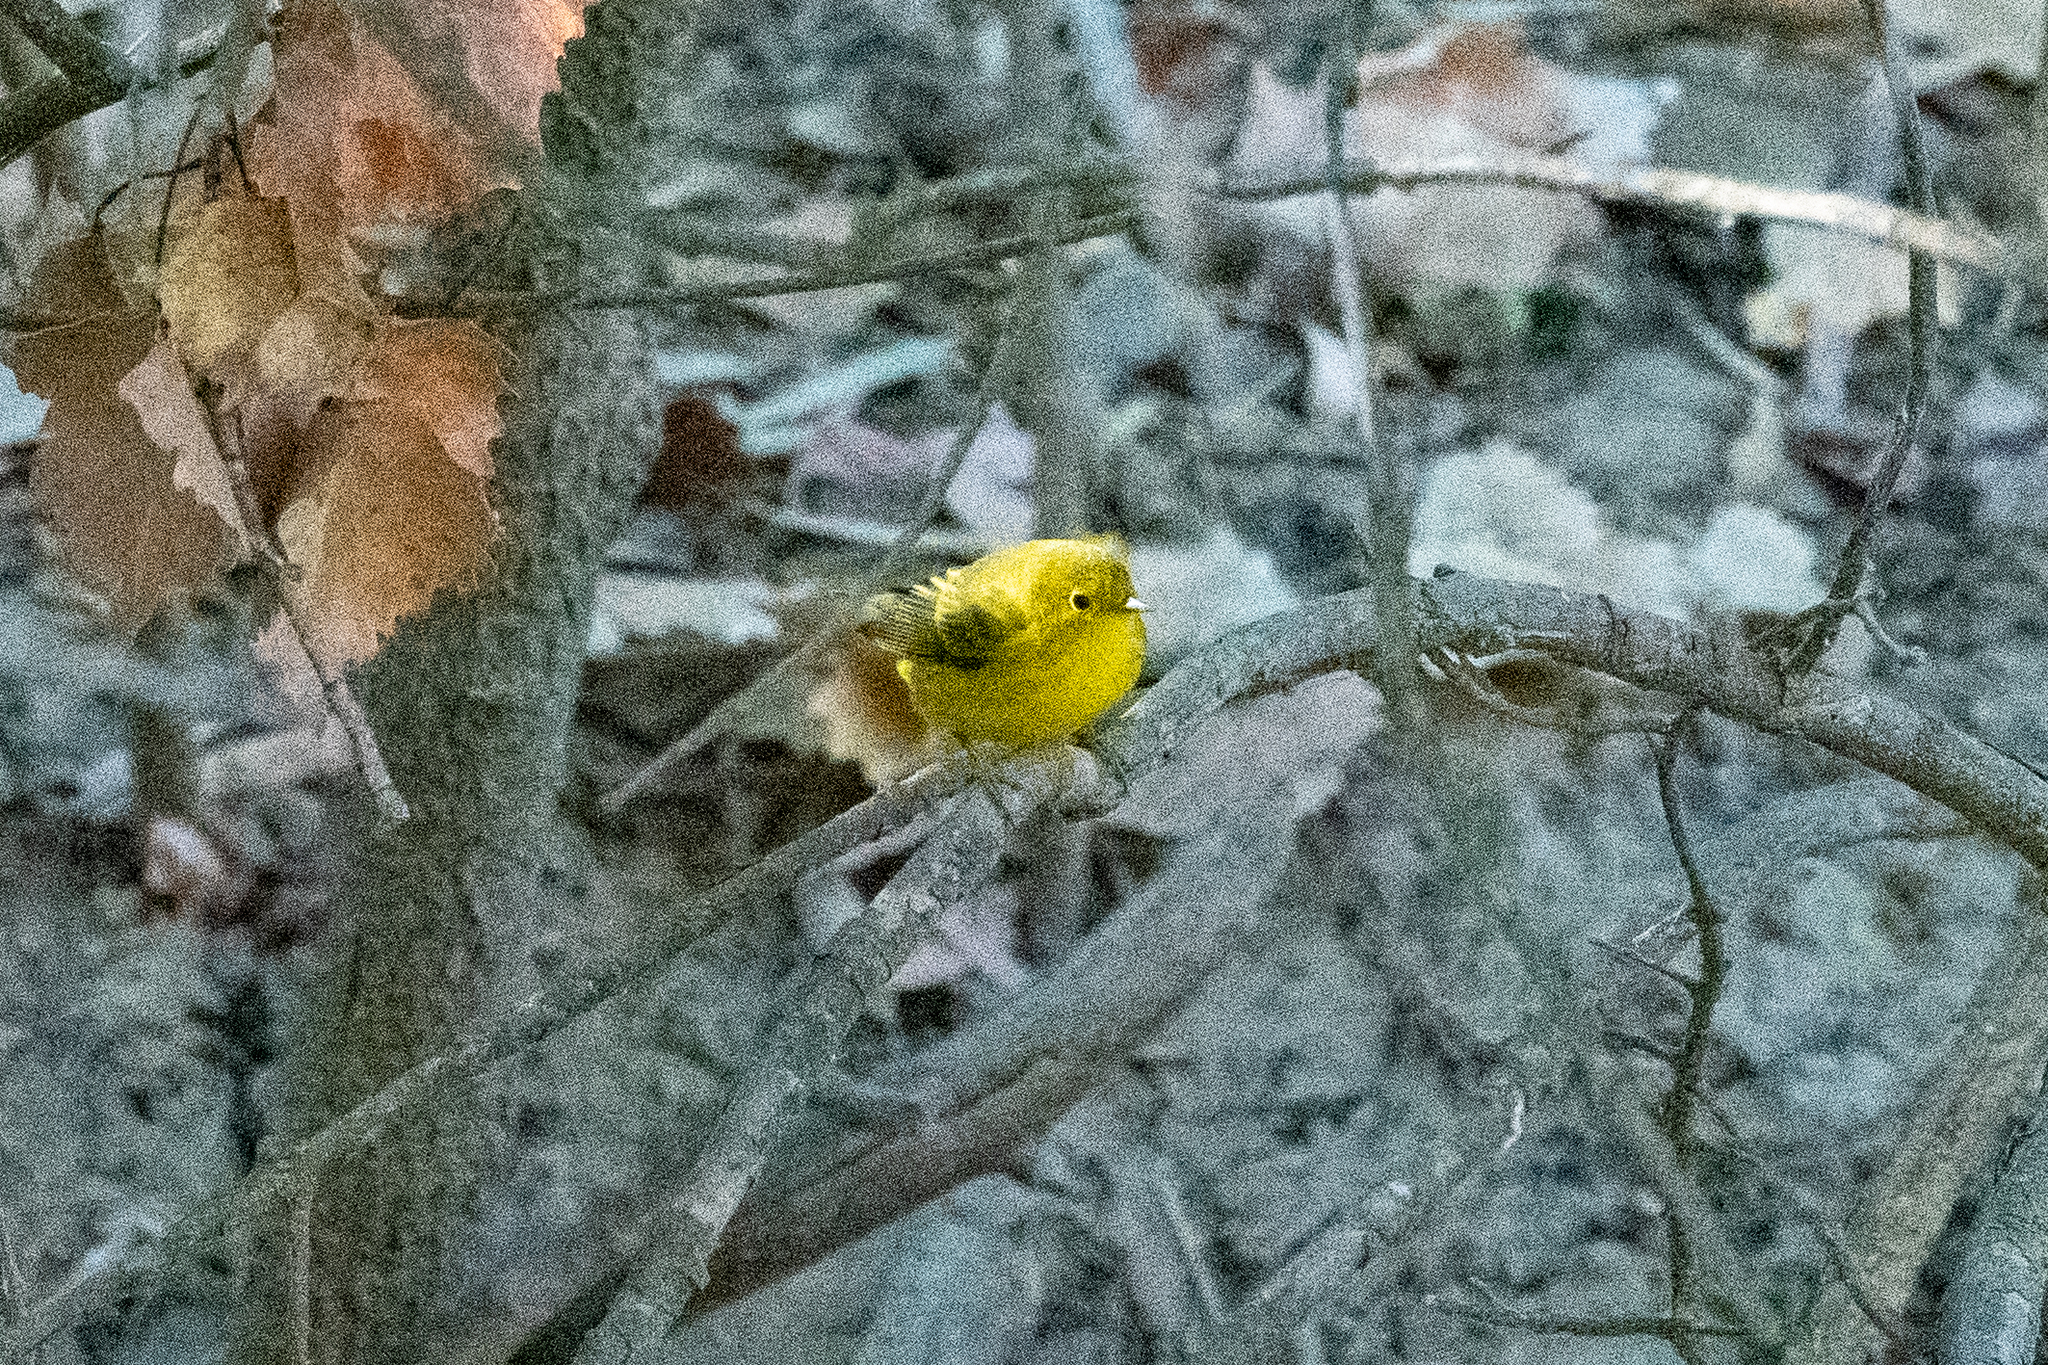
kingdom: Animalia
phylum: Chordata
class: Aves
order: Passeriformes
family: Parulidae
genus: Setophaga
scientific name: Setophaga petechia
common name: Yellow warbler
